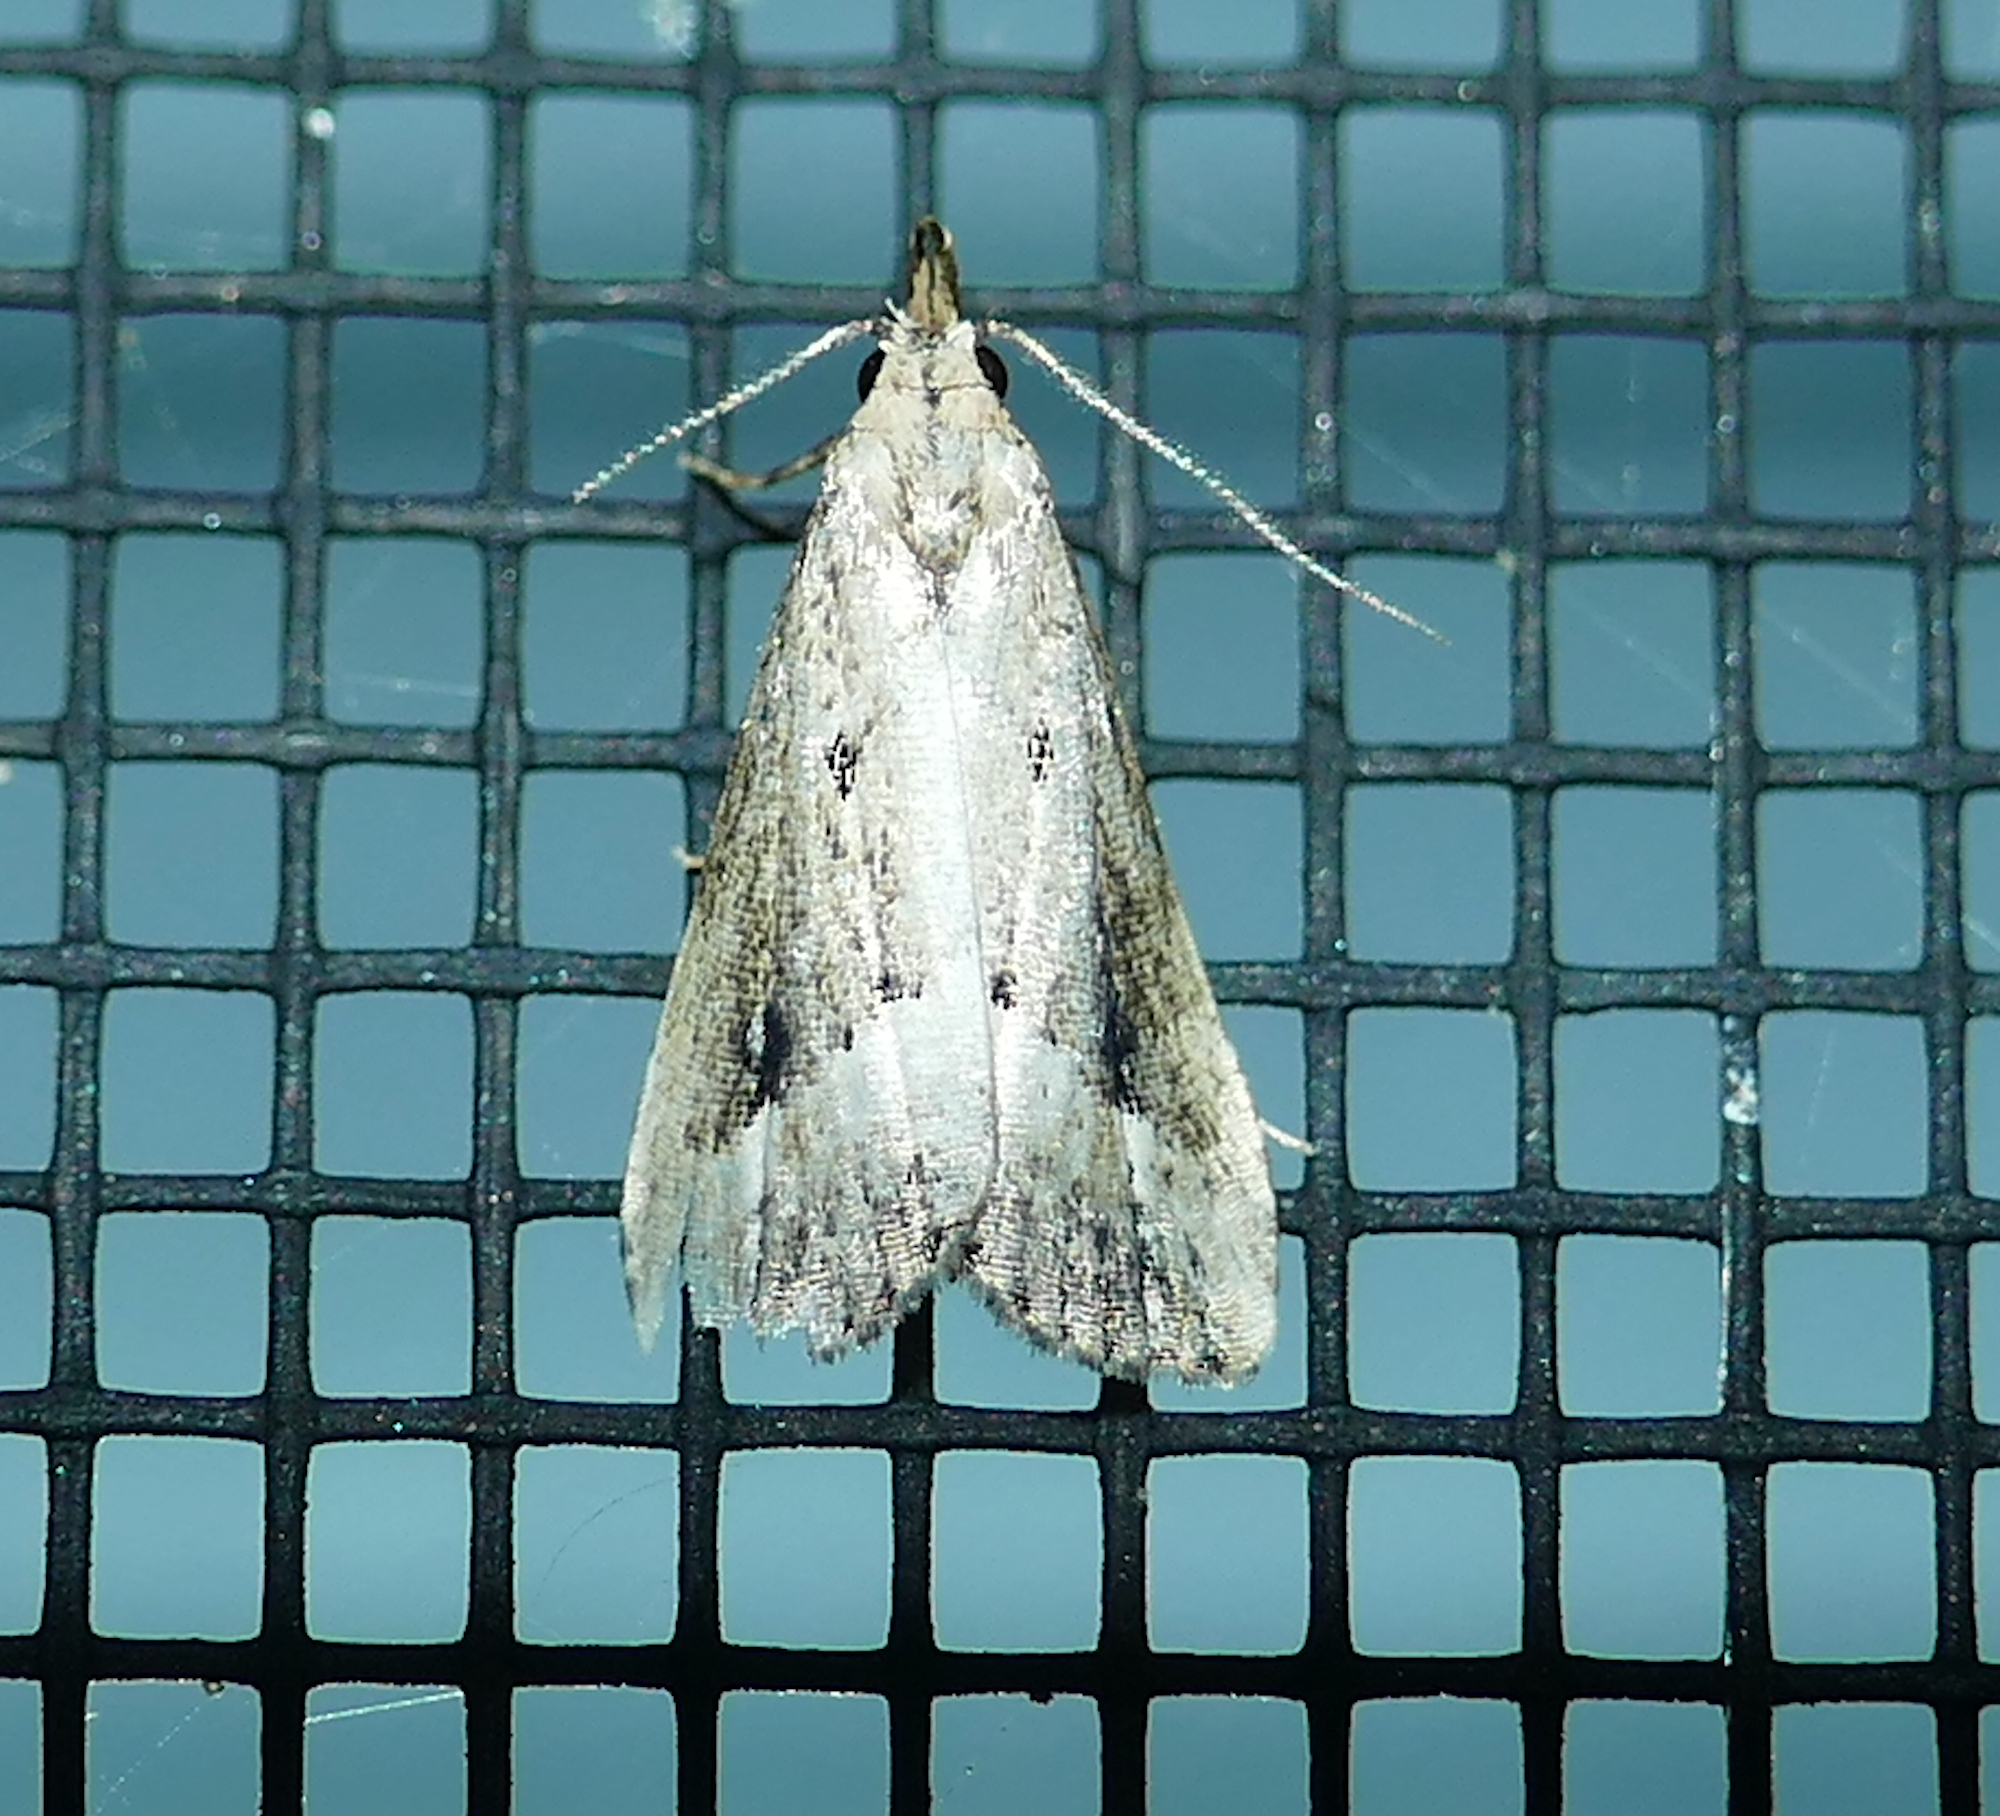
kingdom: Animalia
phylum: Arthropoda
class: Insecta
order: Lepidoptera
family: Erebidae
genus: Schrankia
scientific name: Schrankia
